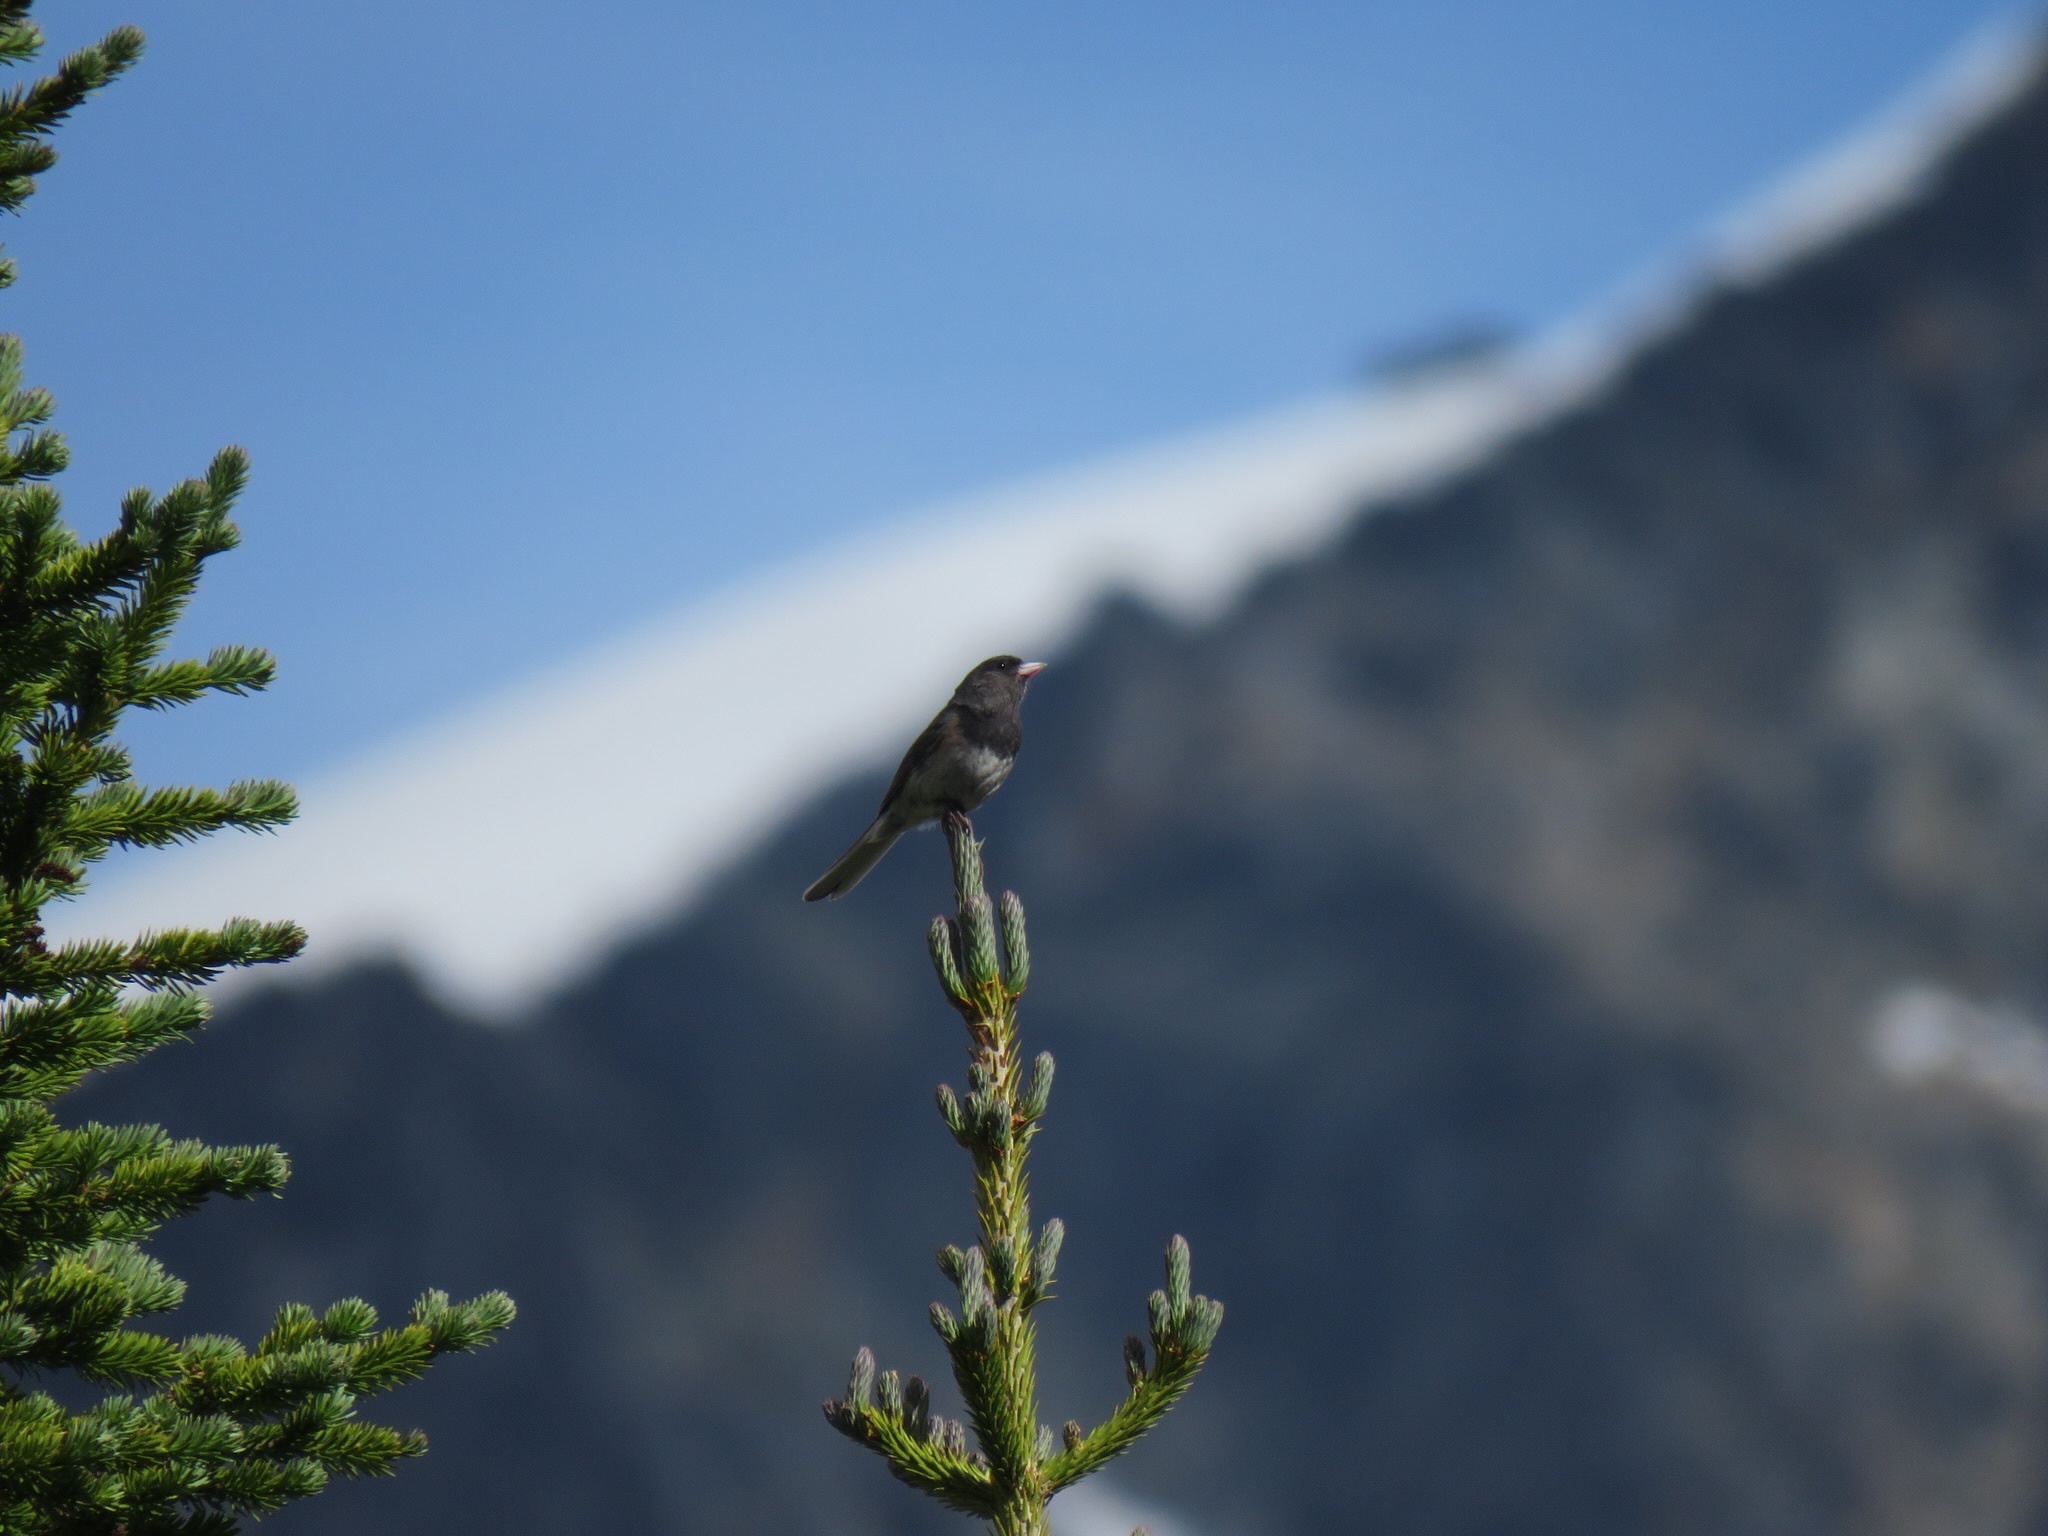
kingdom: Animalia
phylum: Chordata
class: Aves
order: Passeriformes
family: Passerellidae
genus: Junco
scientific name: Junco hyemalis
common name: Dark-eyed junco
